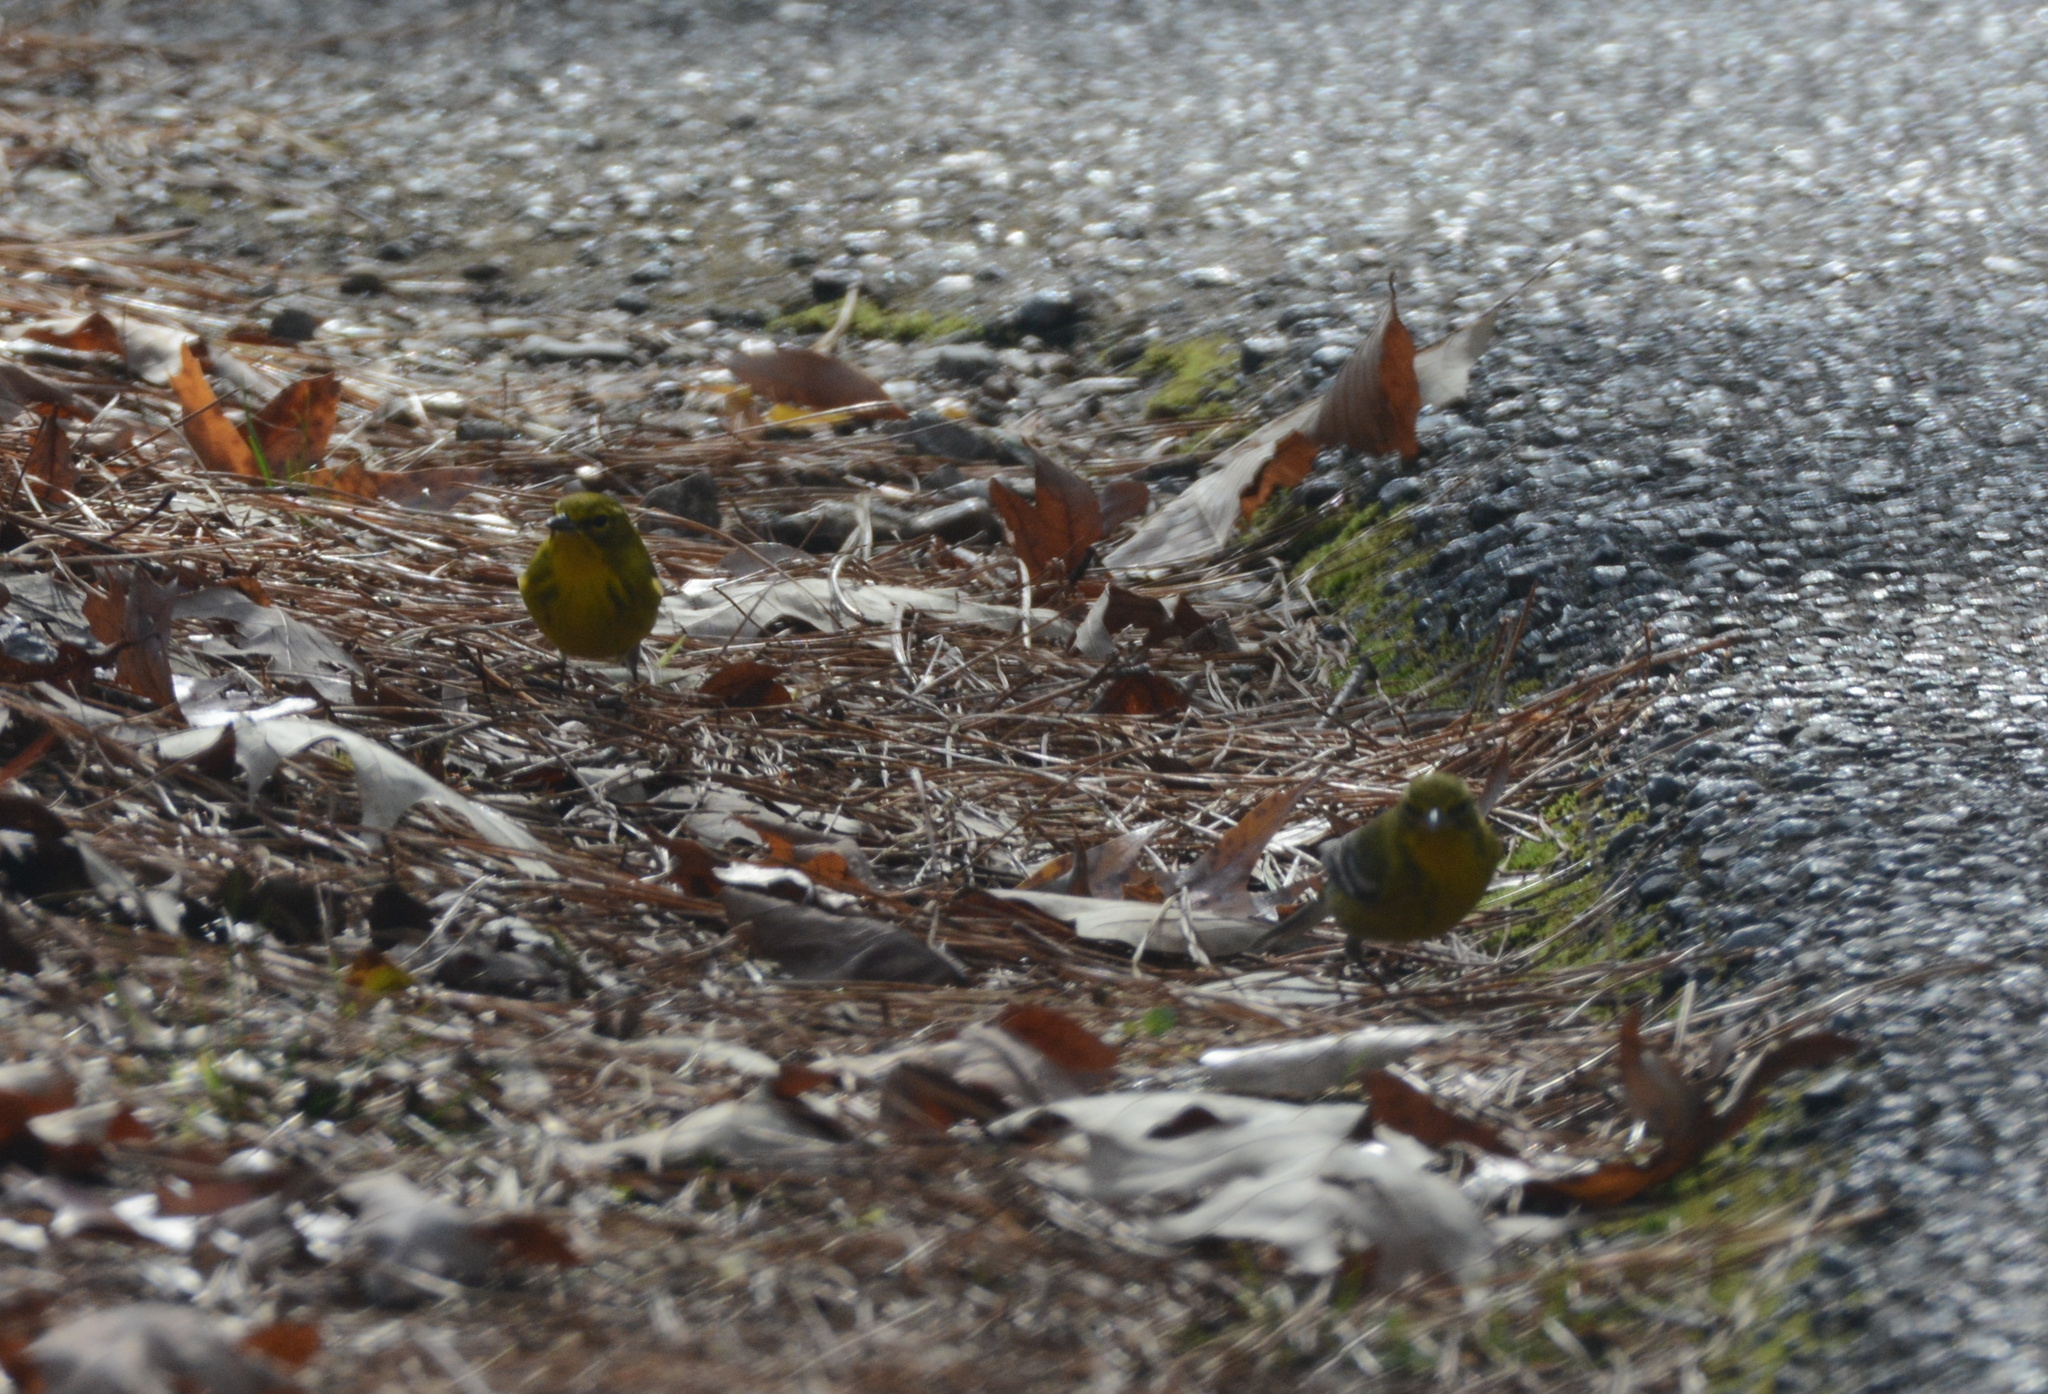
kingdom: Animalia
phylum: Chordata
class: Aves
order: Passeriformes
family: Parulidae
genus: Setophaga
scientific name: Setophaga pinus
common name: Pine warbler
